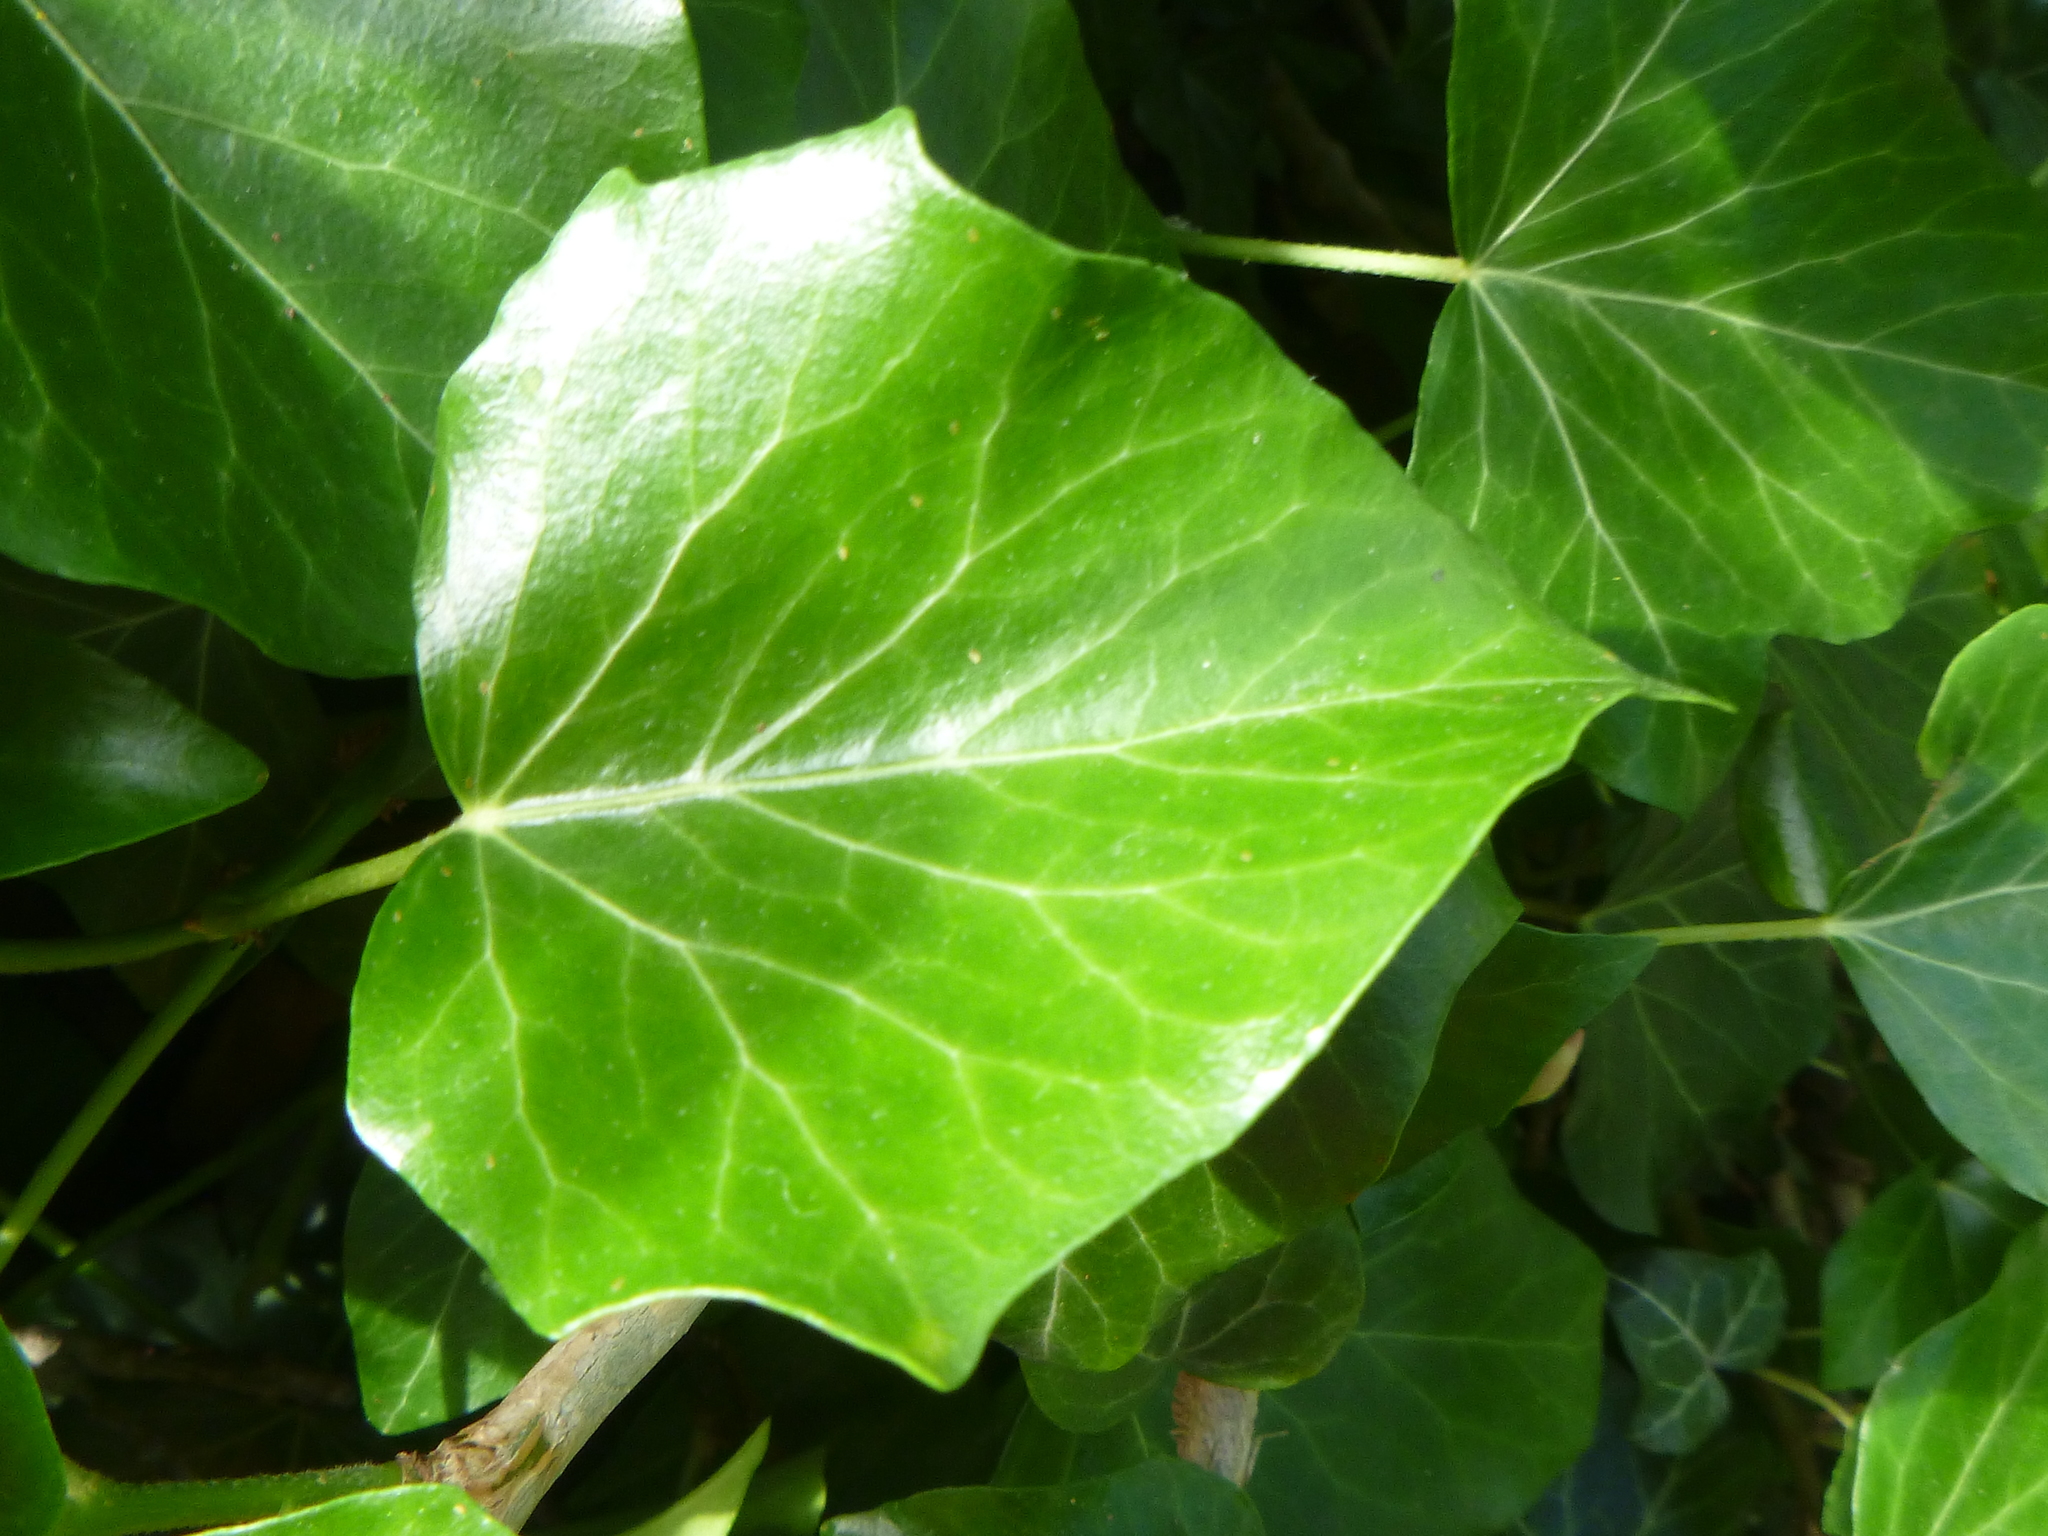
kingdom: Plantae
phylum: Tracheophyta
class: Magnoliopsida
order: Apiales
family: Araliaceae
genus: Hedera
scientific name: Hedera helix
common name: Ivy
